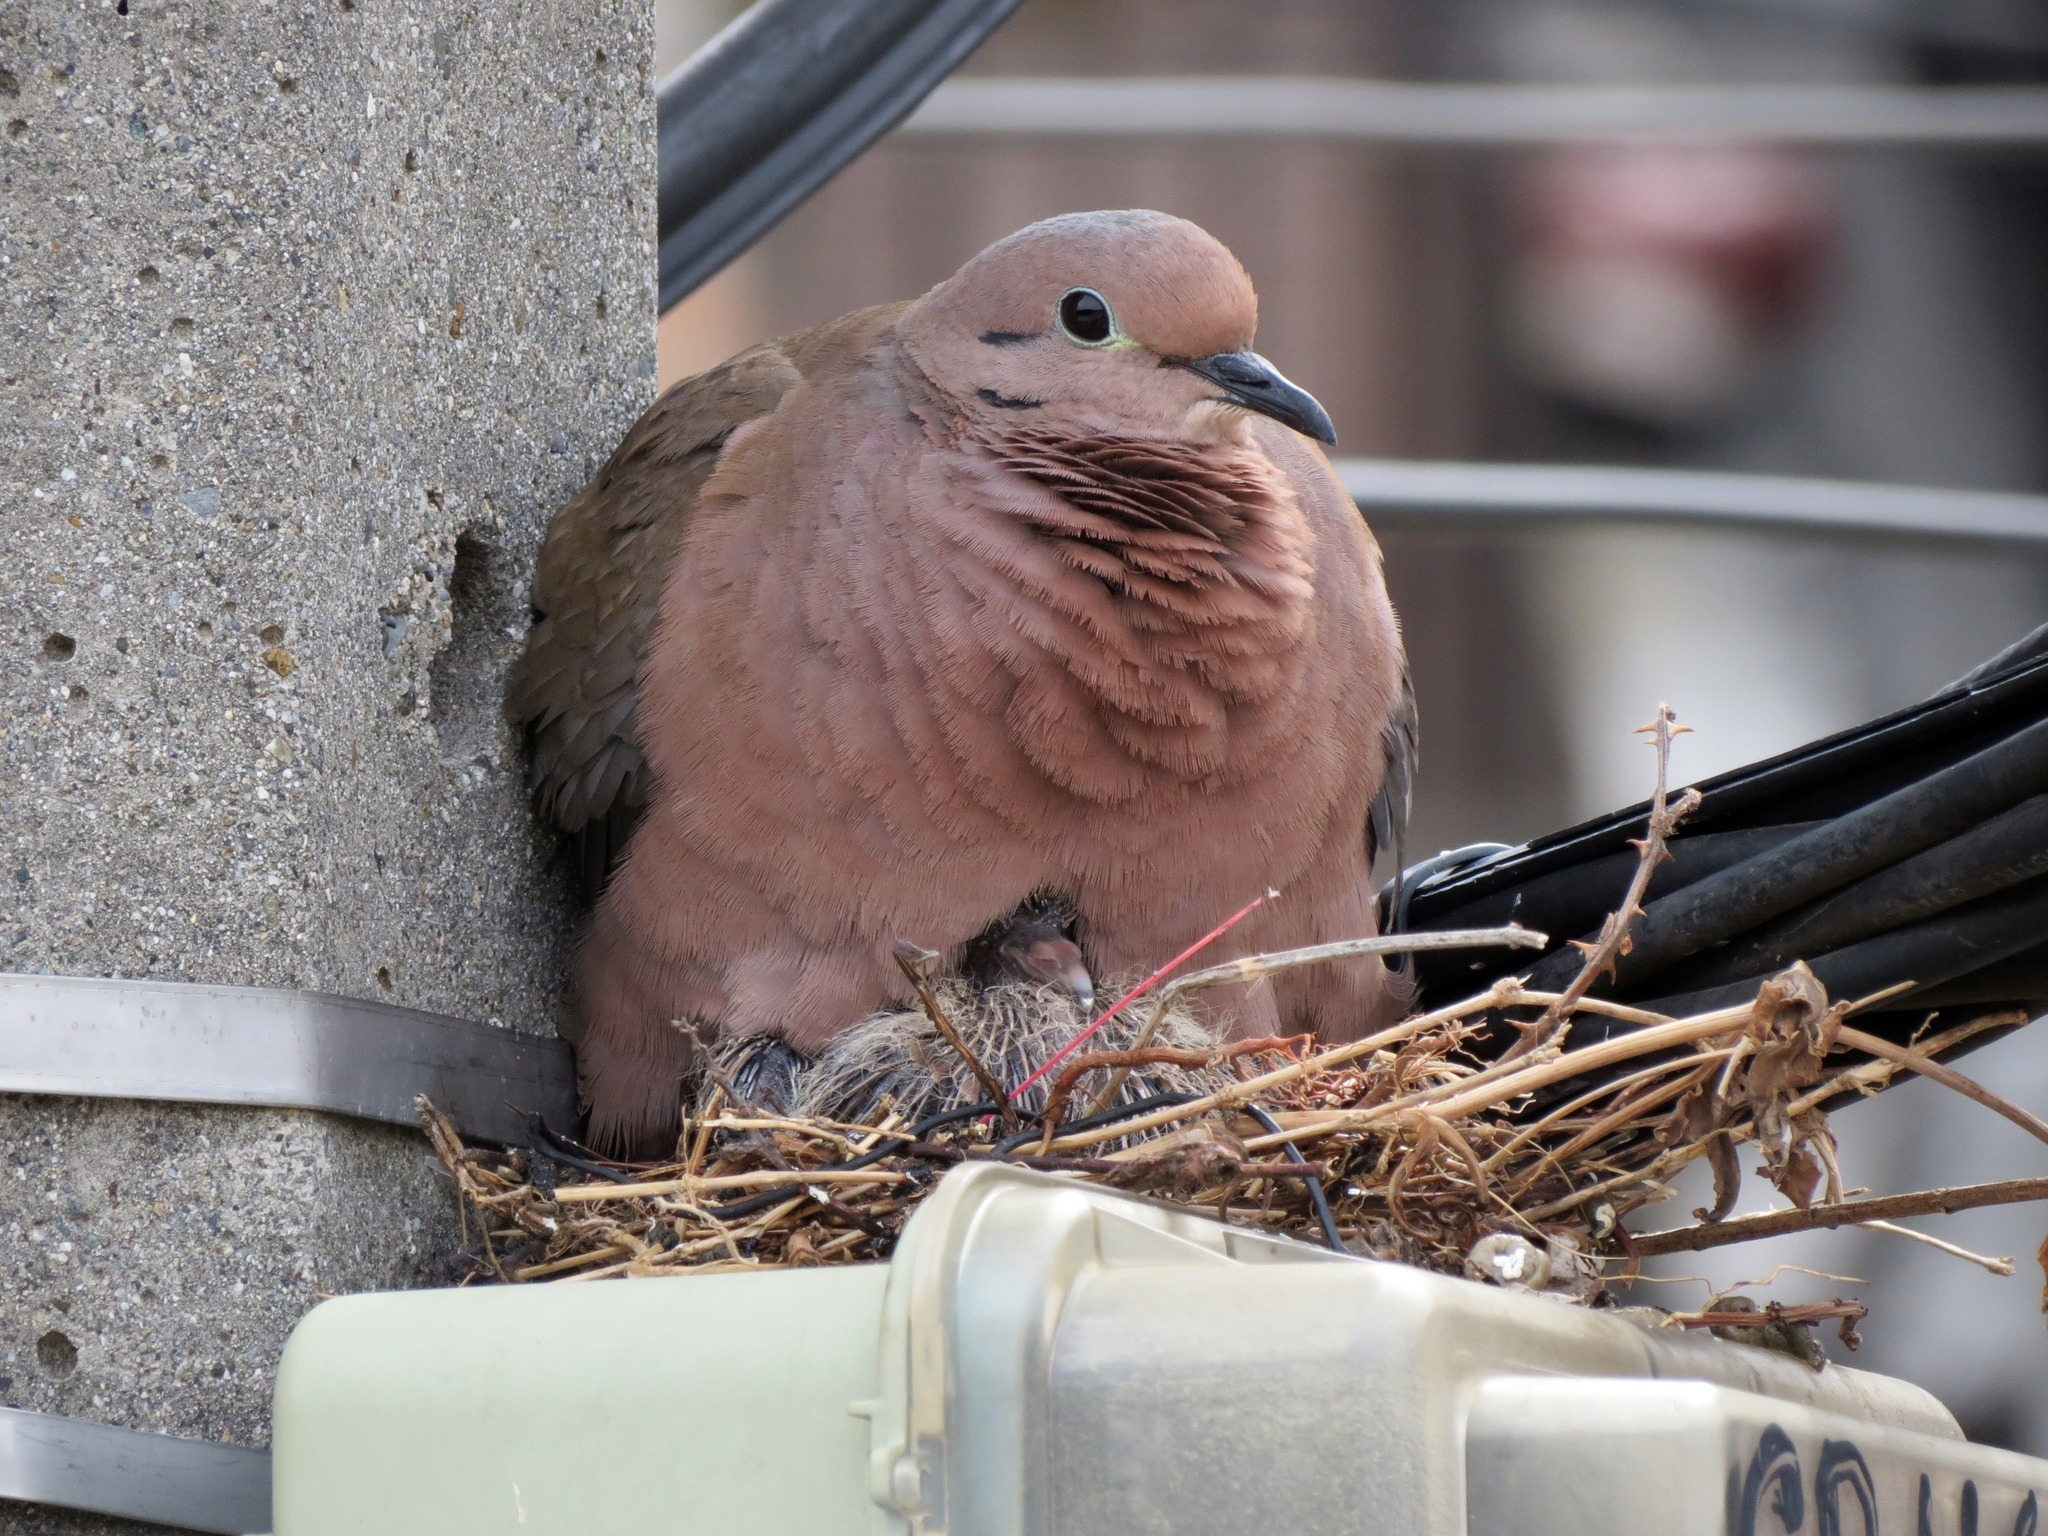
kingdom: Animalia
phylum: Chordata
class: Aves
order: Columbiformes
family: Columbidae
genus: Zenaida
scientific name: Zenaida auriculata
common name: Eared dove
